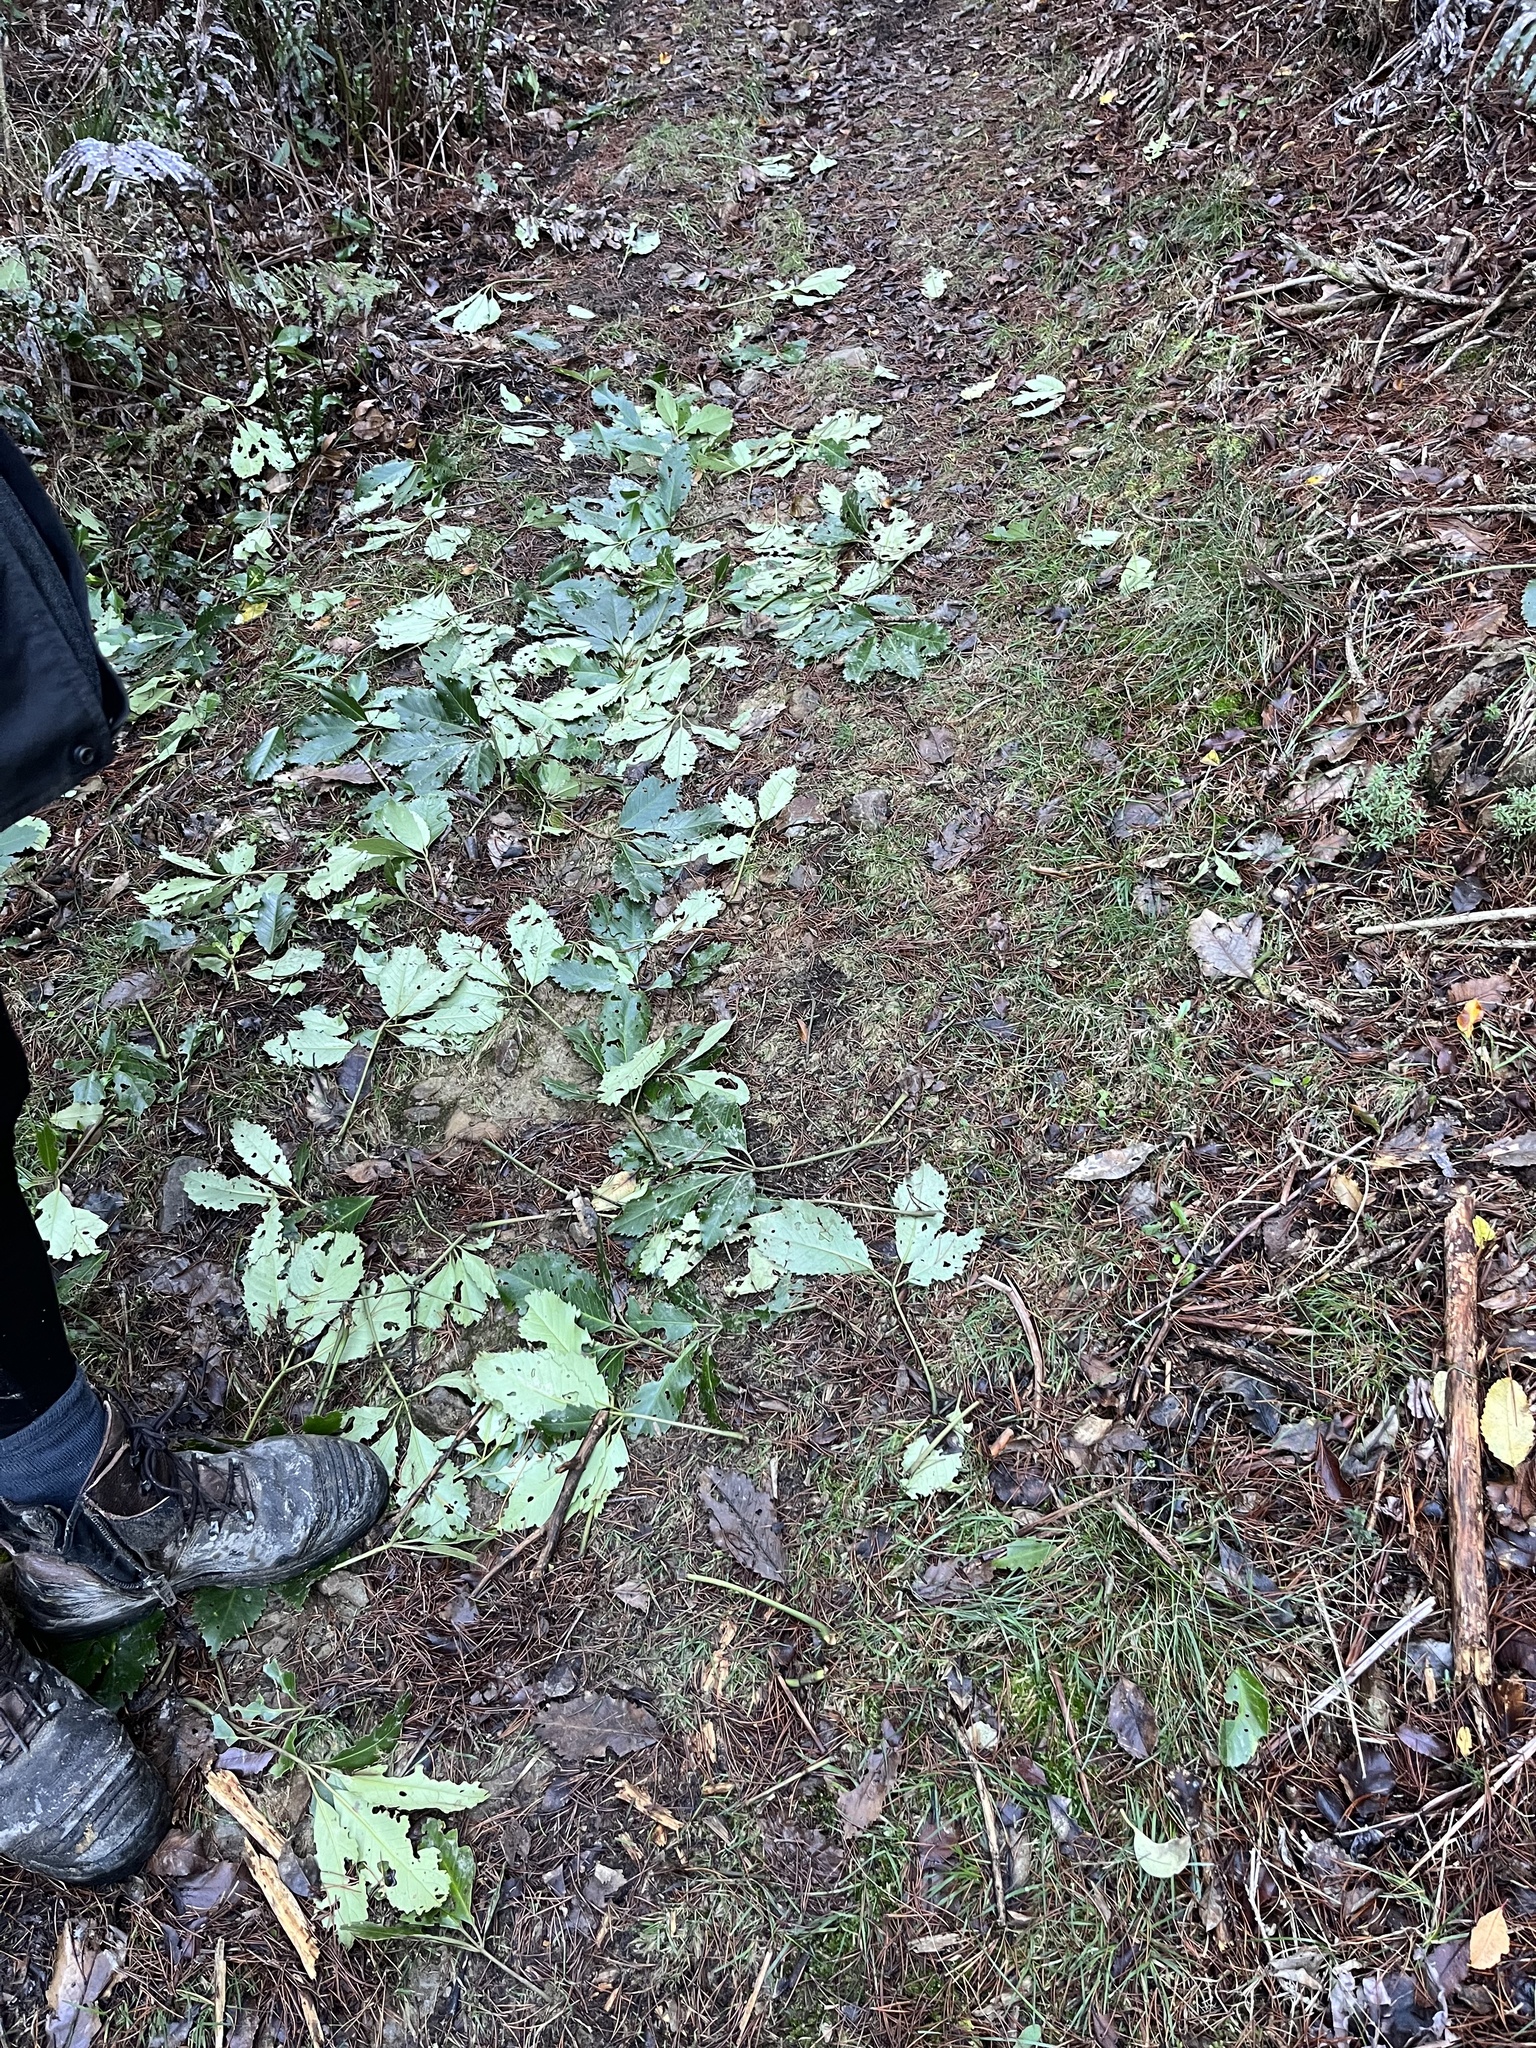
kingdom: Animalia
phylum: Chordata
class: Mammalia
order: Diprotodontia
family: Phalangeridae
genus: Trichosurus
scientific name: Trichosurus vulpecula
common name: Common brushtail
